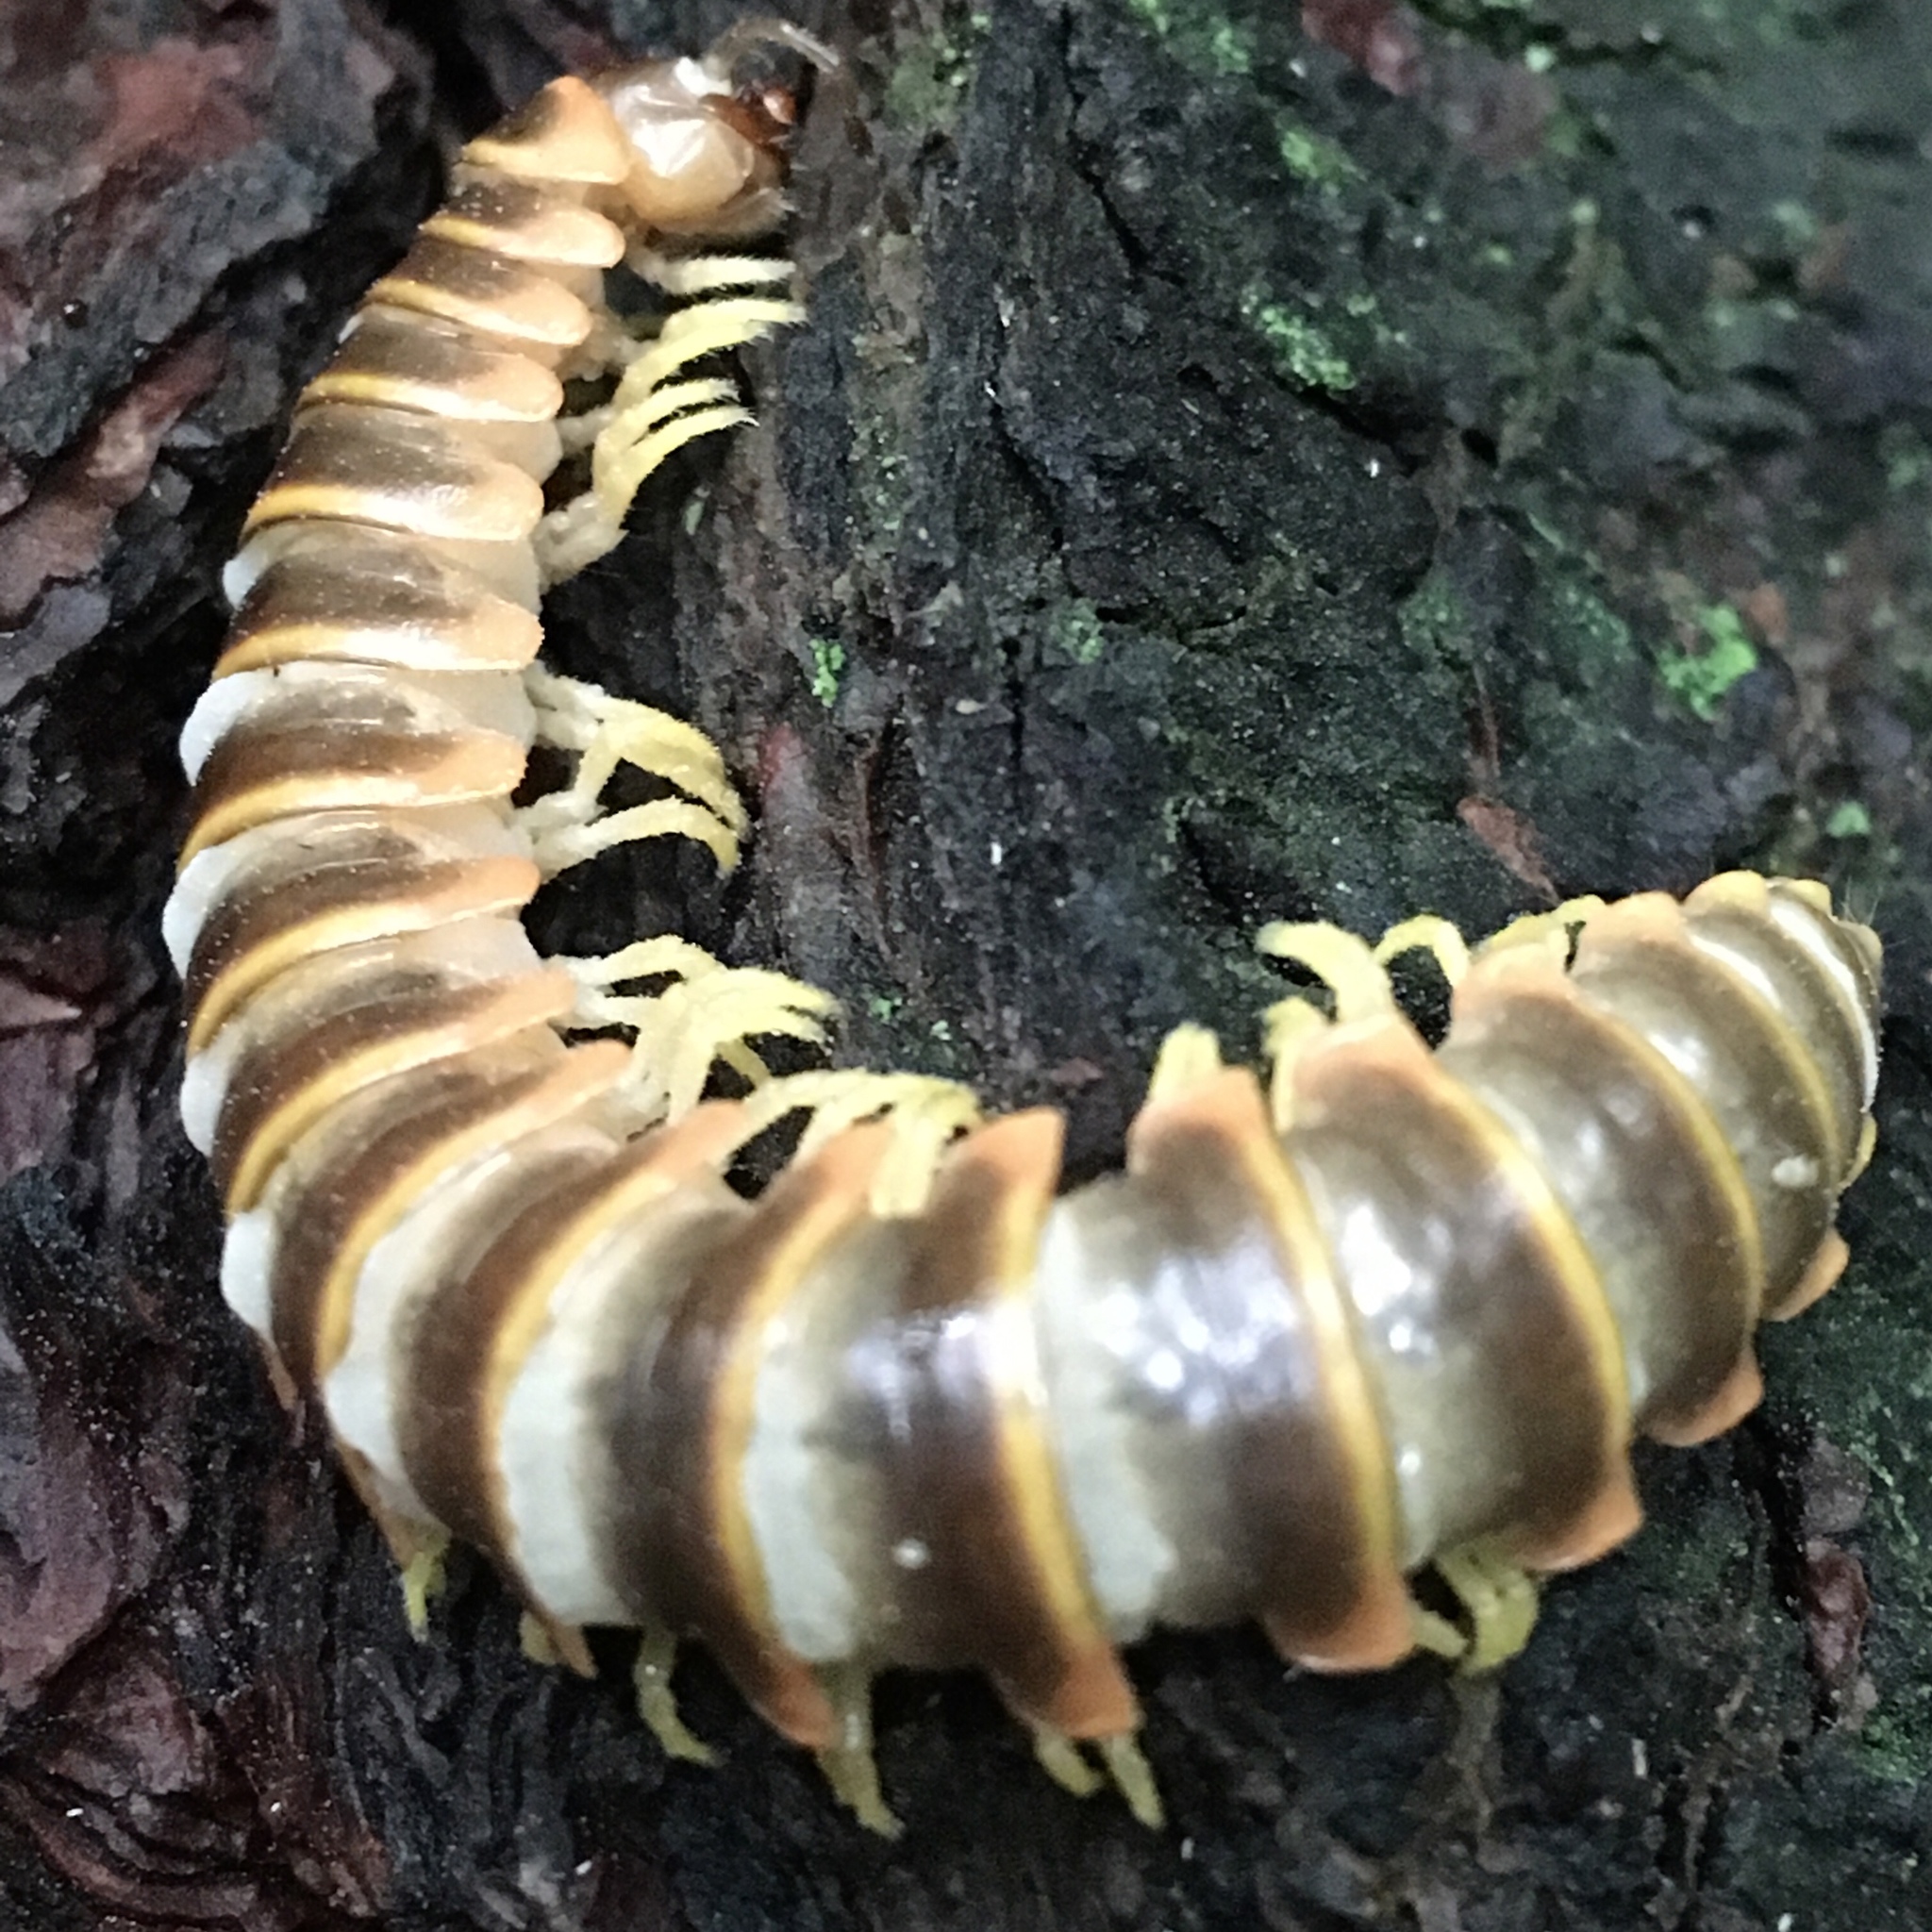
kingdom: Animalia
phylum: Arthropoda
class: Diplopoda
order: Polydesmida
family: Xystodesmidae
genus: Apheloria
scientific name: Apheloria virginiensis
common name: Black-and-gold flat millipede
